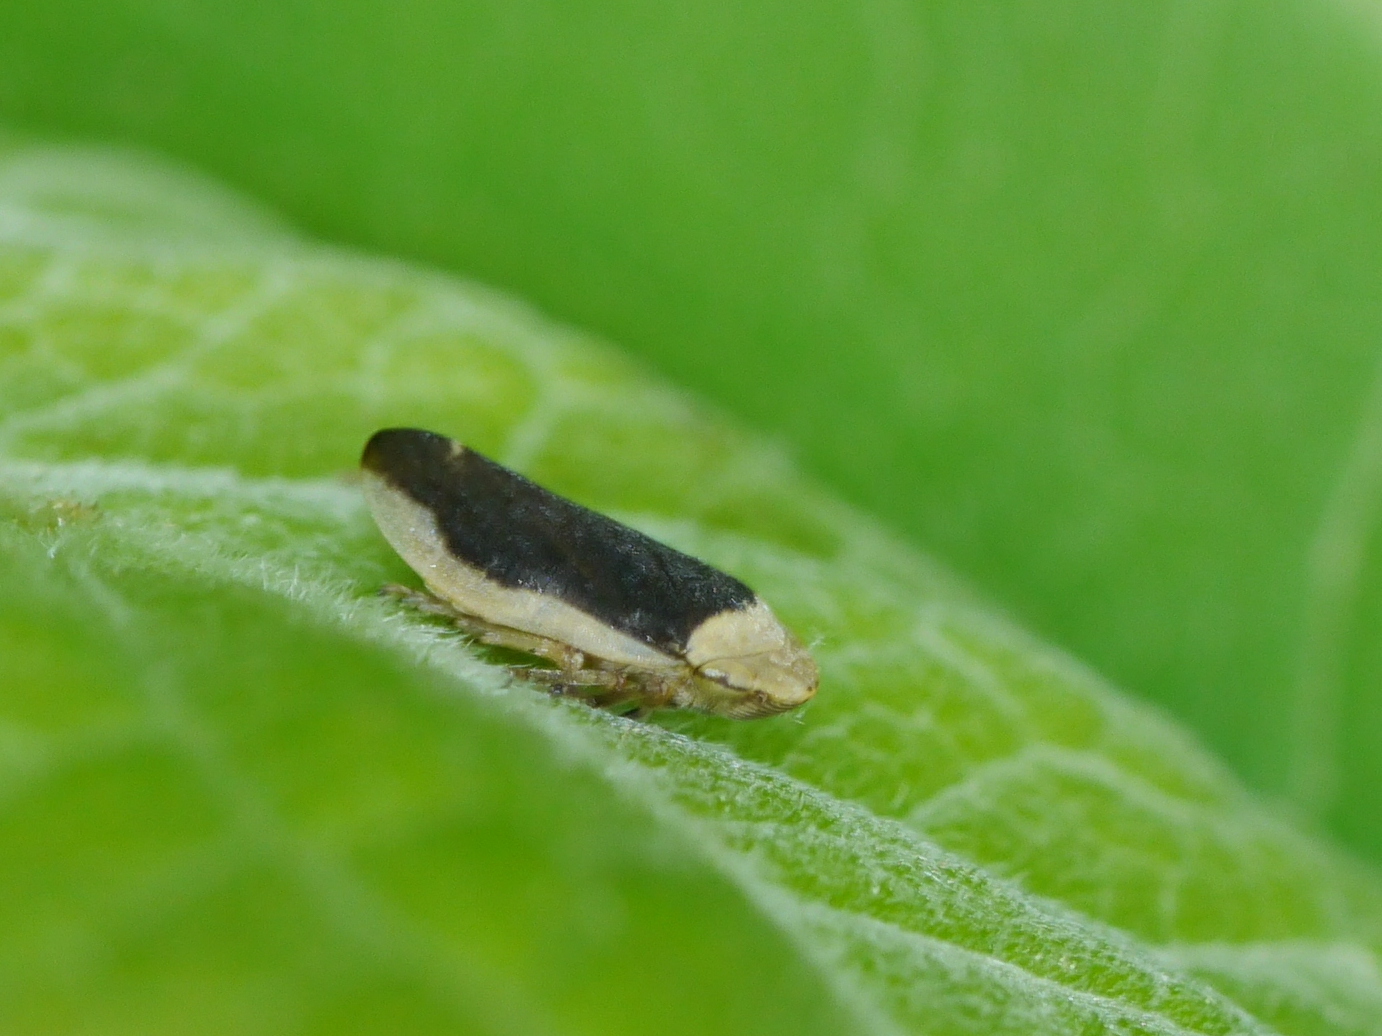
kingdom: Animalia
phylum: Arthropoda
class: Insecta
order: Hemiptera
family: Aphrophoridae
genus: Philaenus
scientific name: Philaenus spumarius
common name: Meadow spittlebug
